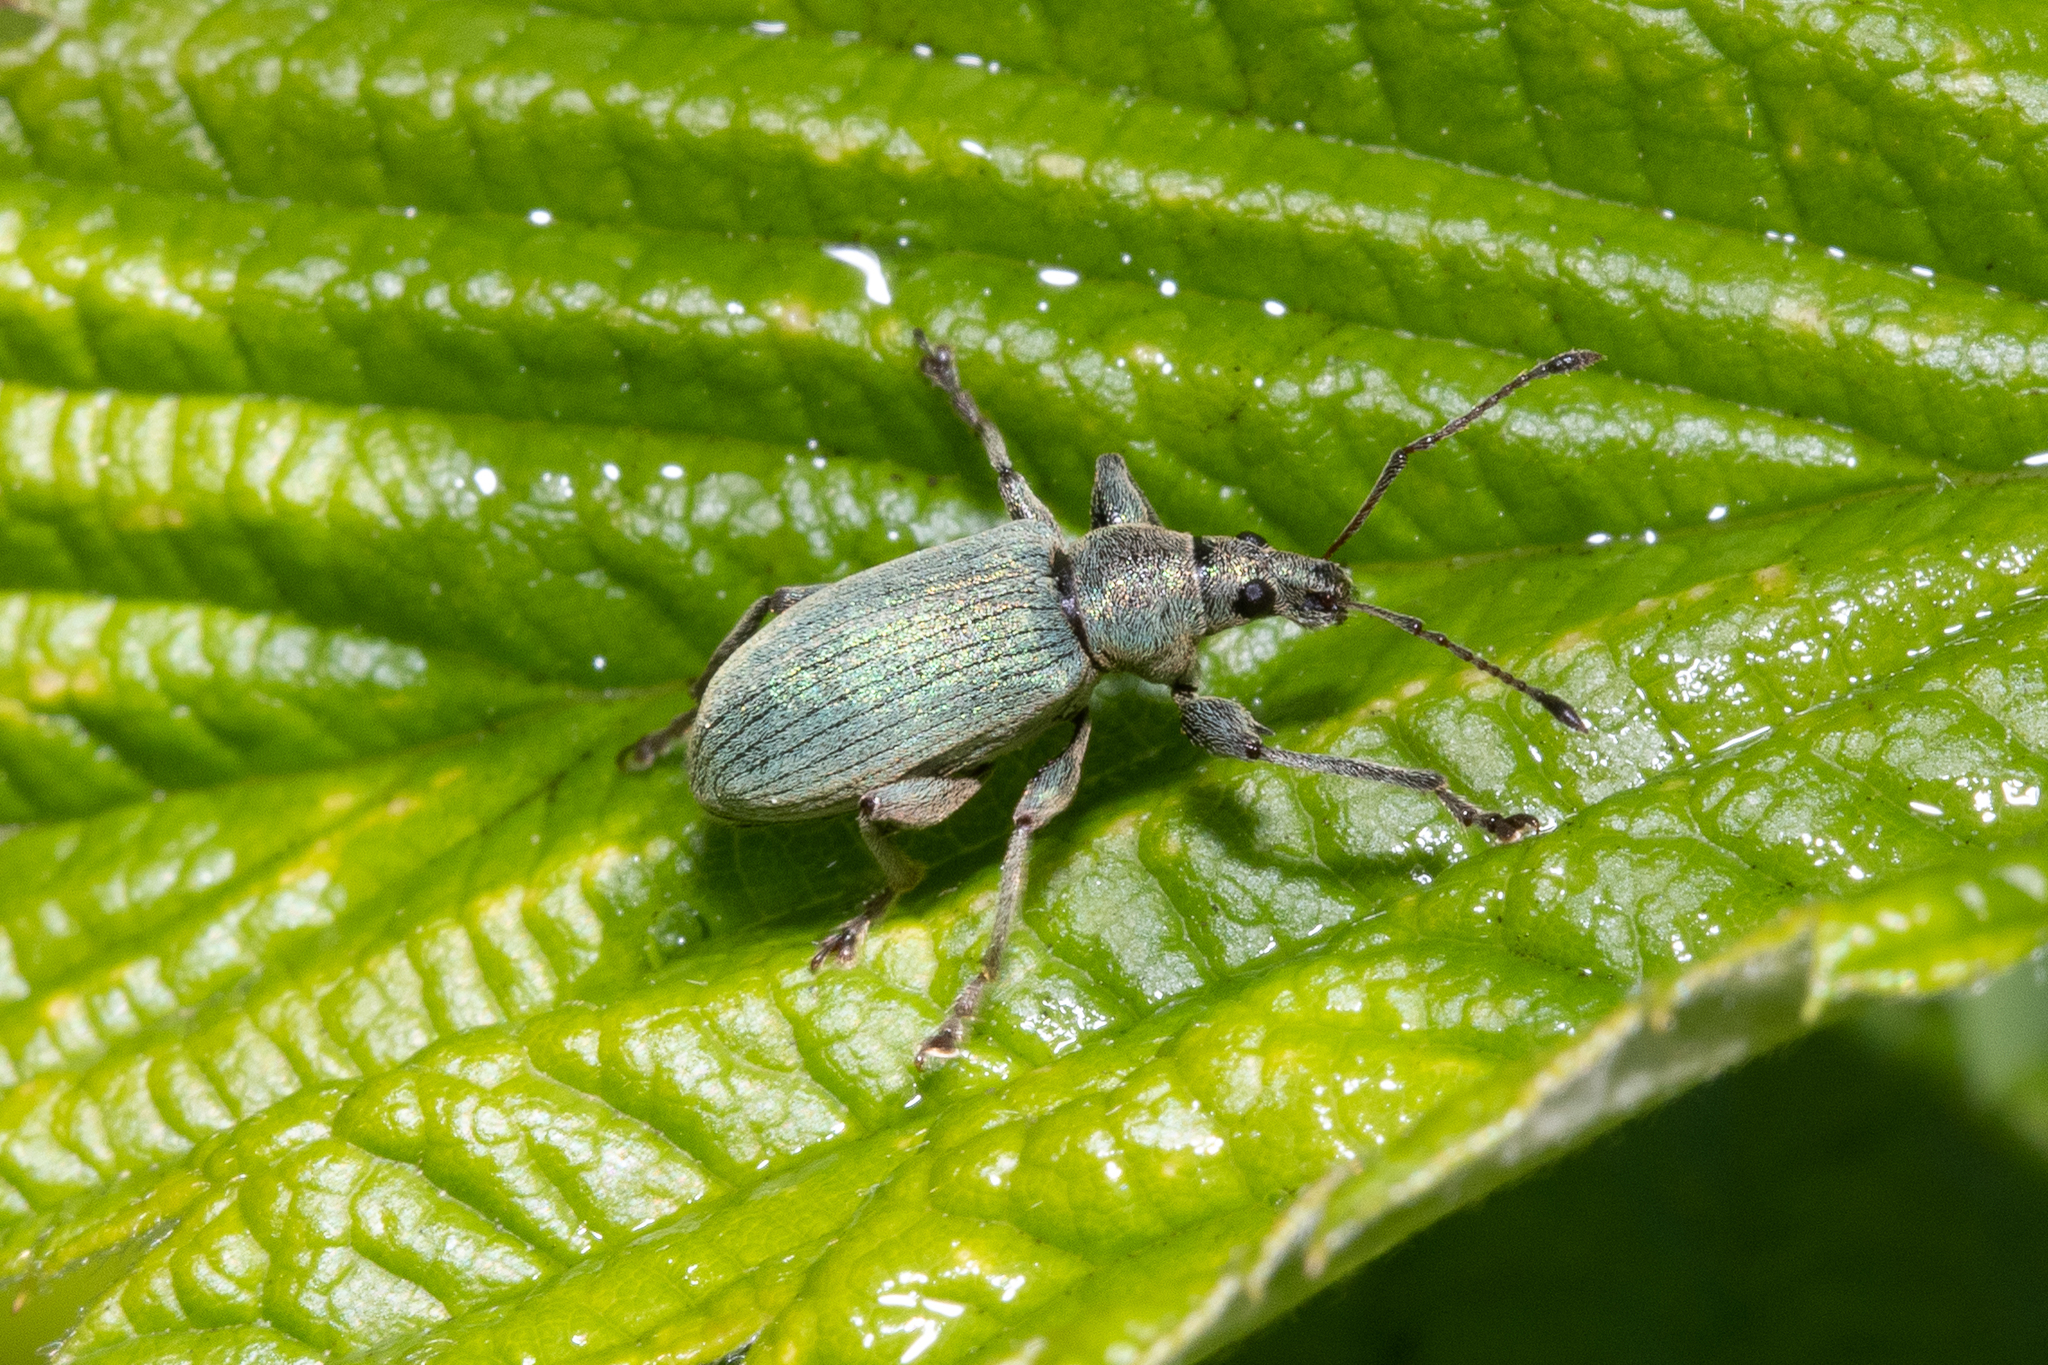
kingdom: Animalia
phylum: Arthropoda
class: Insecta
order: Coleoptera
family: Curculionidae
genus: Phyllobius
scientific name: Phyllobius pomaceus
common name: Green nettle weevil
